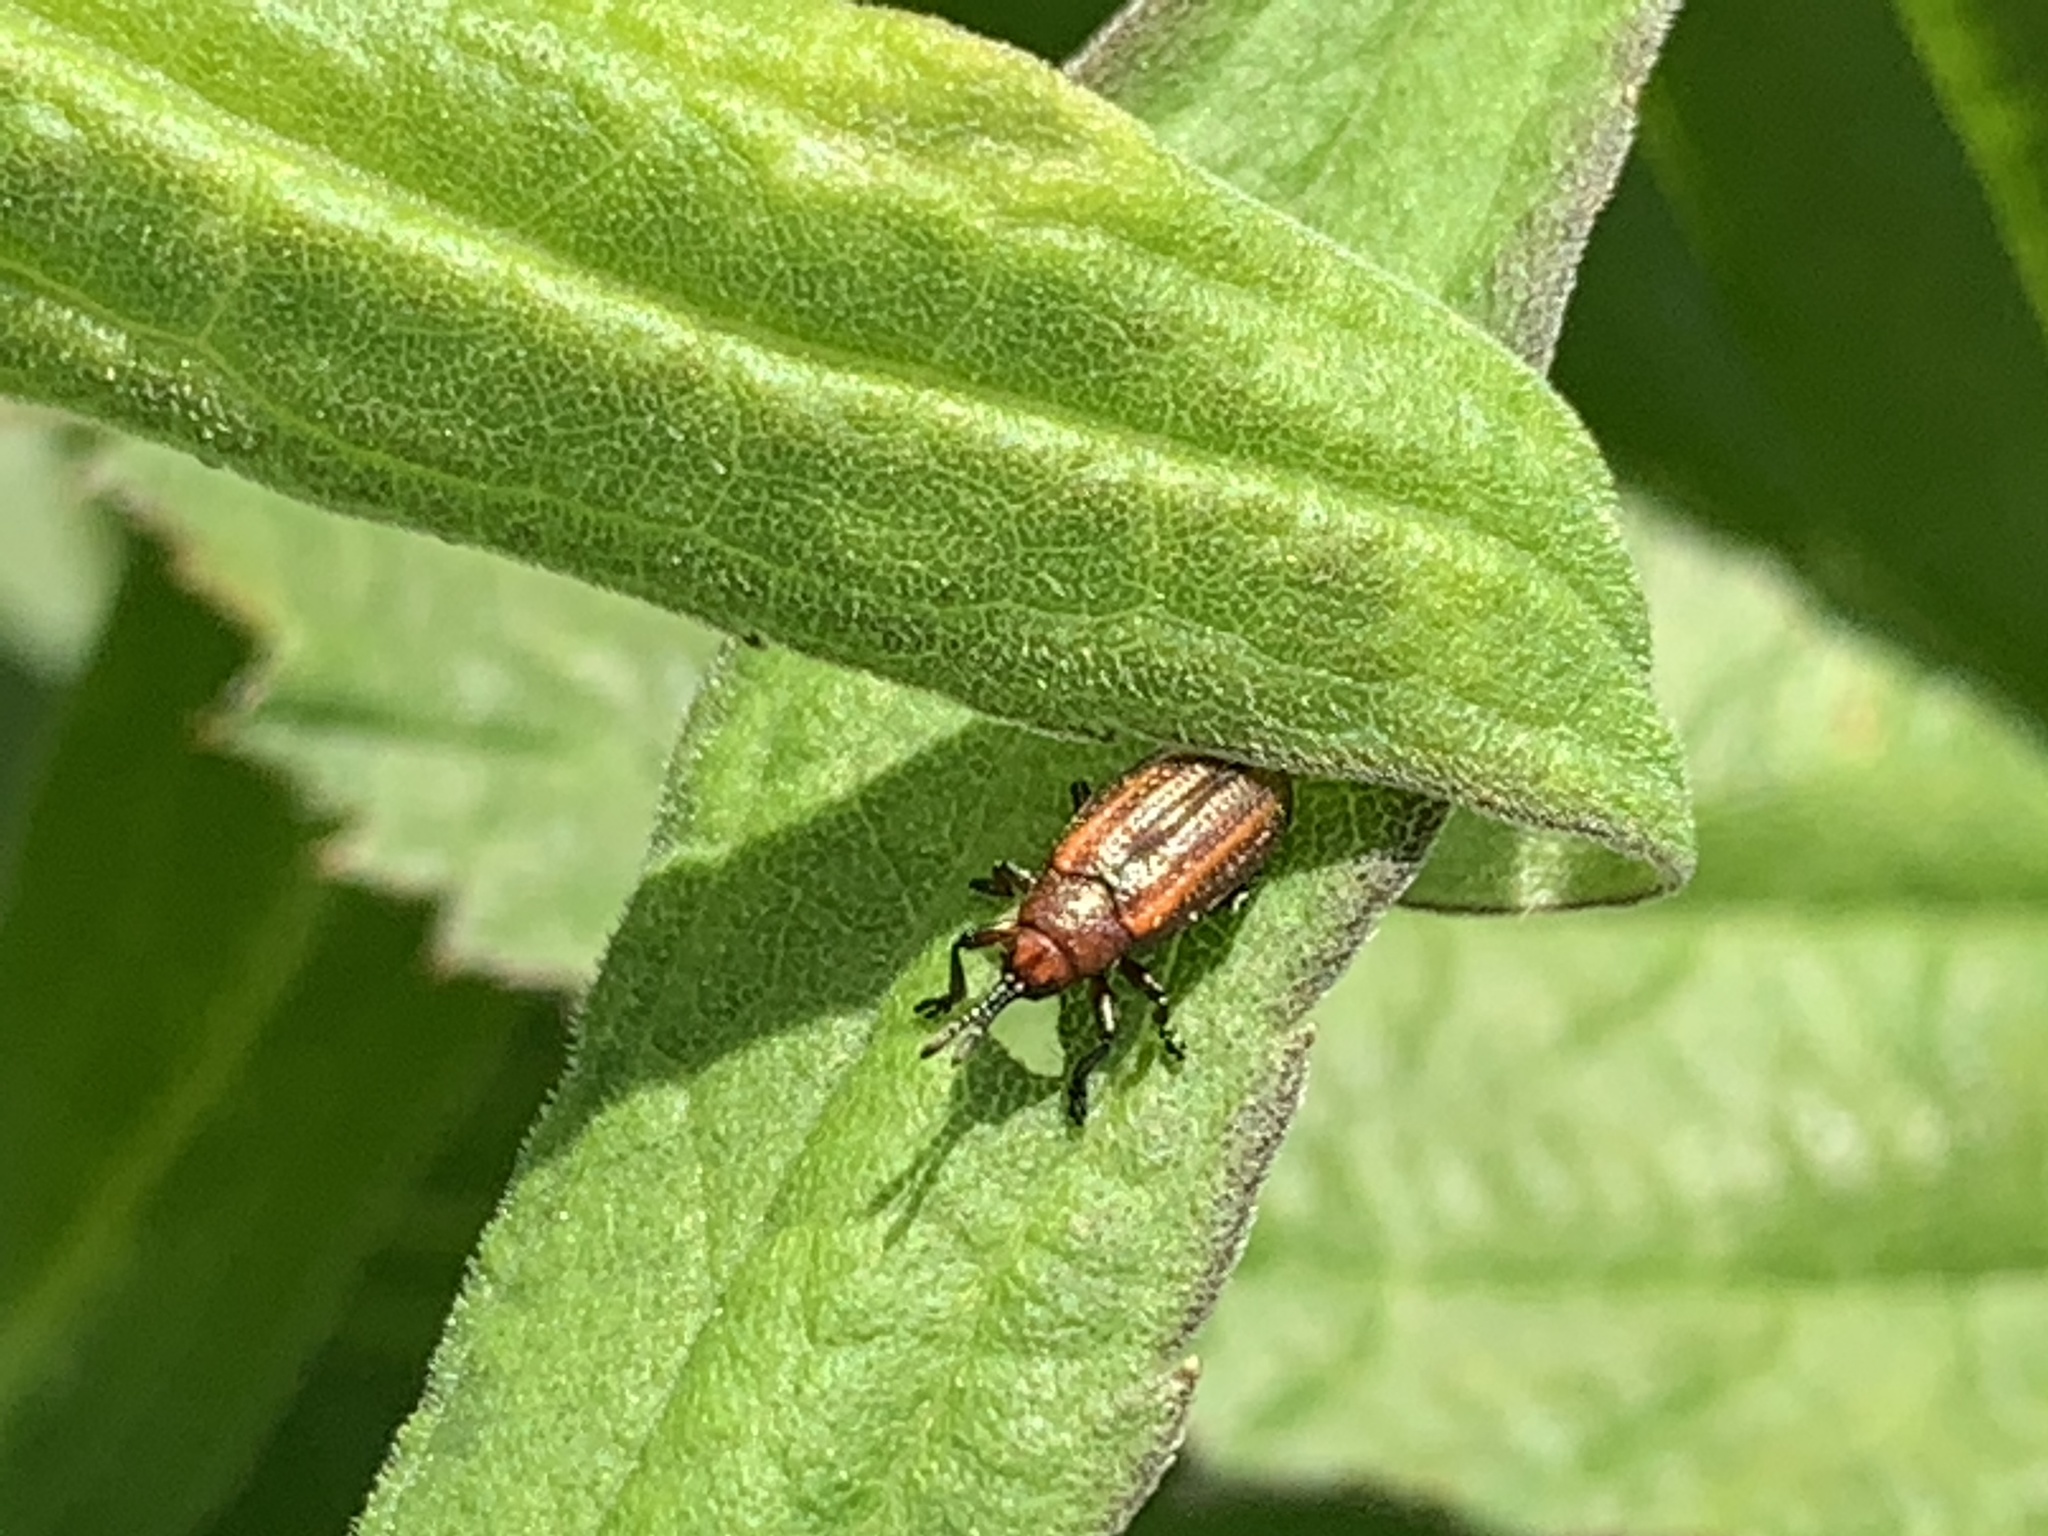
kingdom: Animalia
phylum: Arthropoda
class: Insecta
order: Coleoptera
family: Chrysomelidae
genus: Microrhopala
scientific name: Microrhopala vittata
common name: Goldenrod leaf miner beetle
